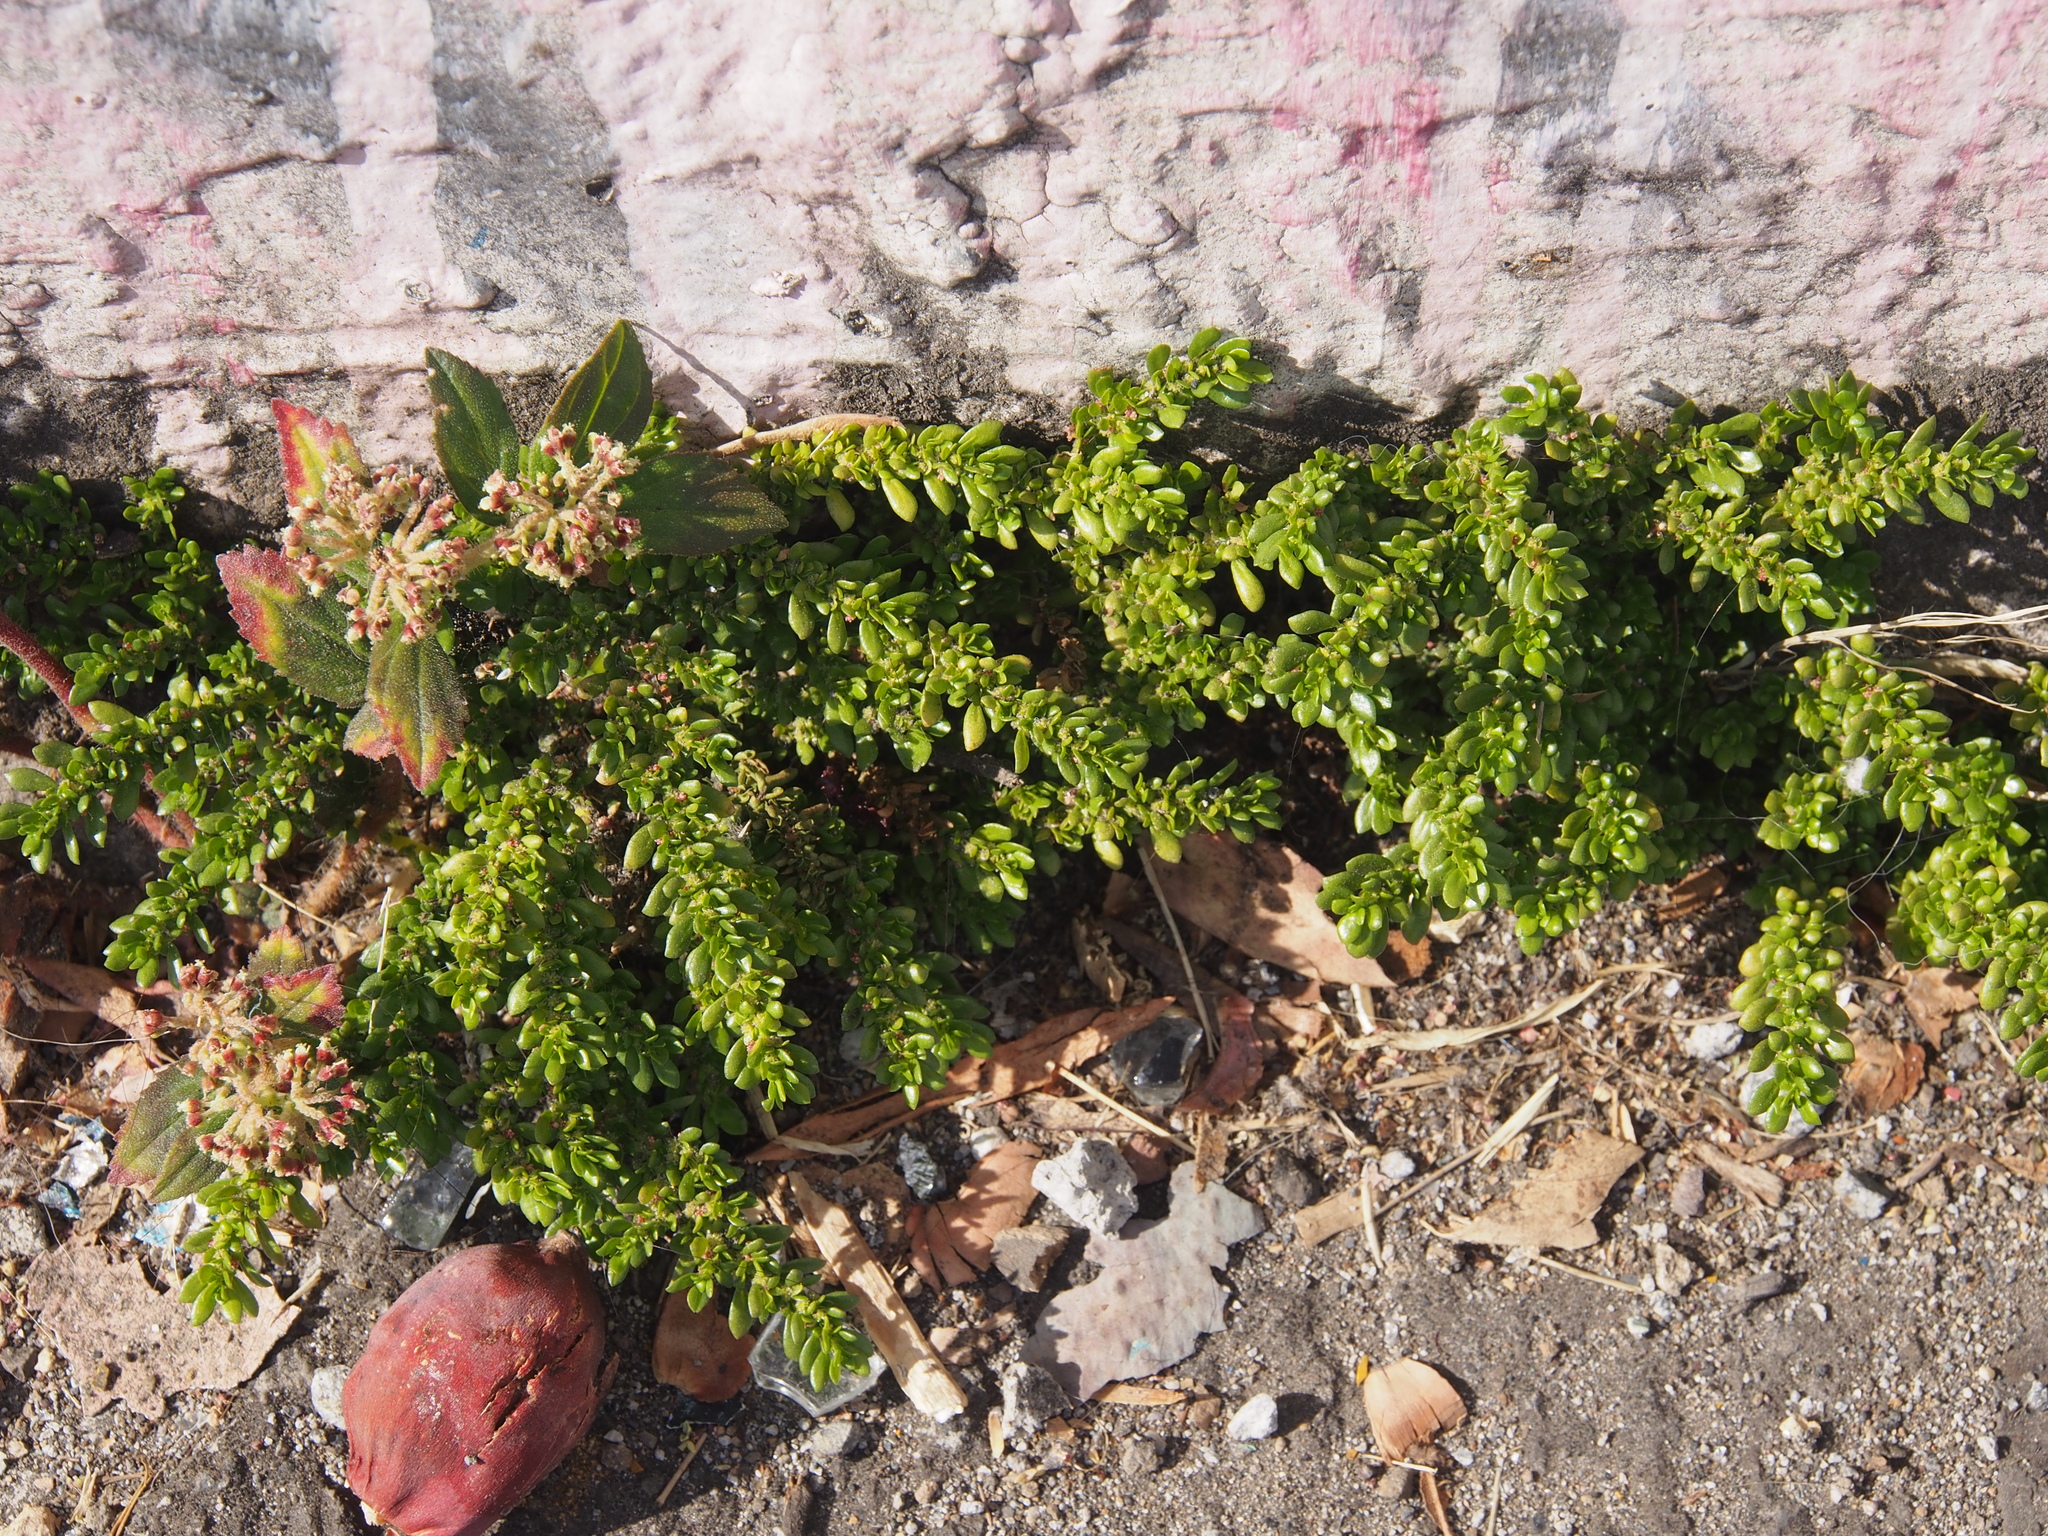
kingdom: Plantae
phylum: Tracheophyta
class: Magnoliopsida
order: Rosales
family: Urticaceae
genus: Pilea
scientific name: Pilea microphylla
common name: Artillery-plant
